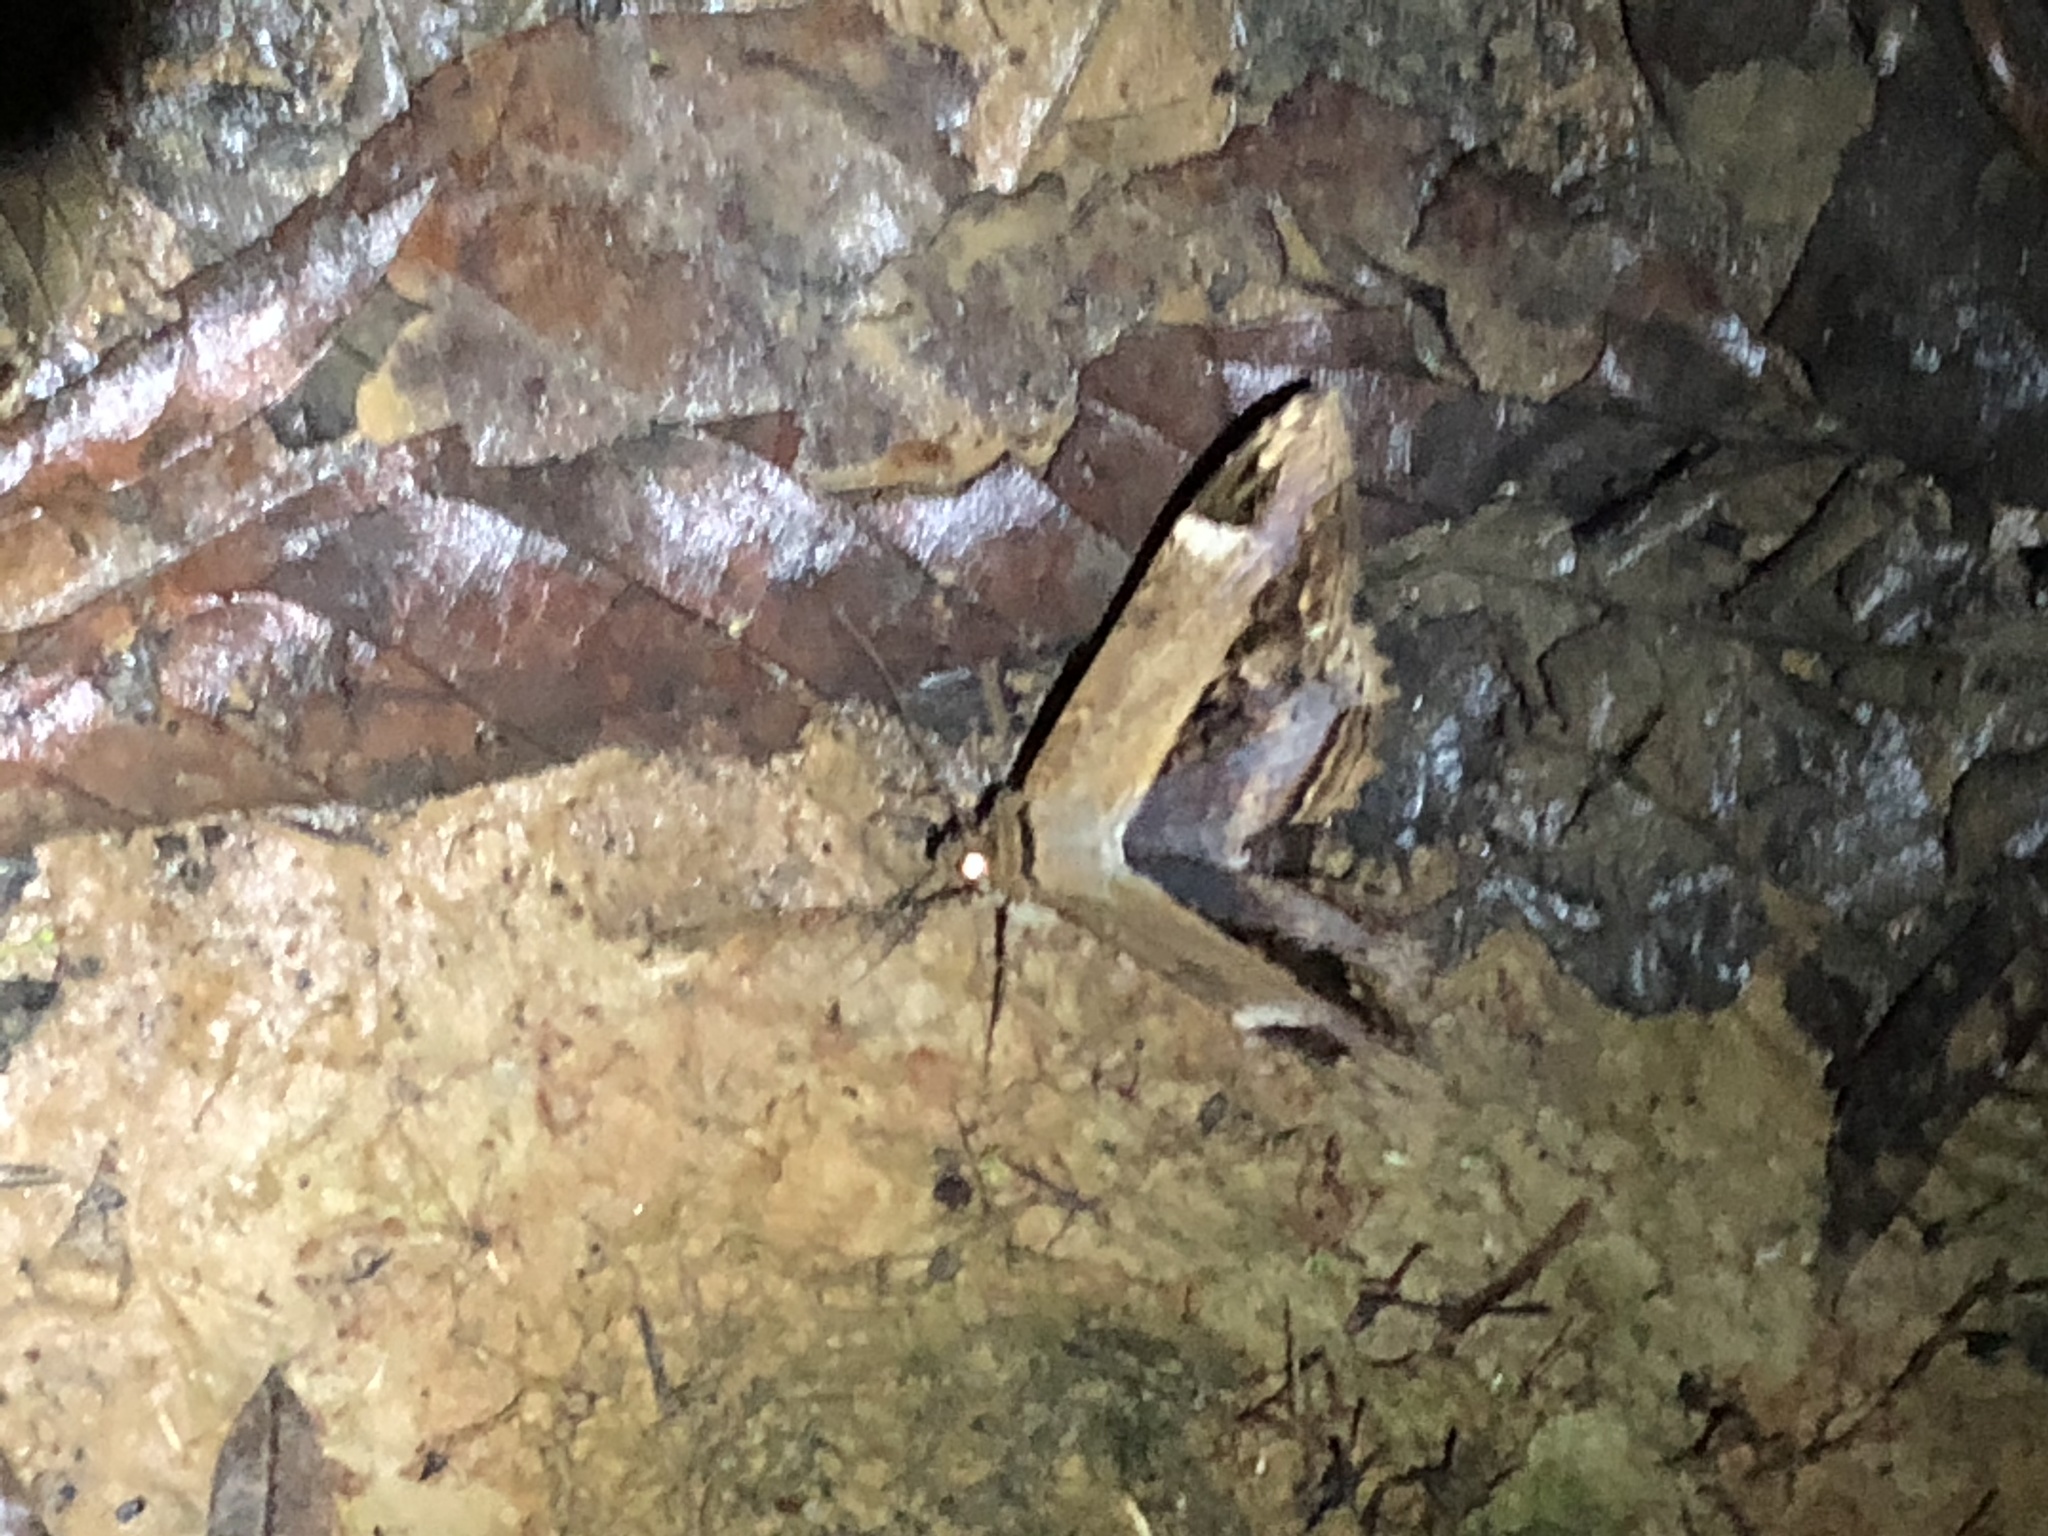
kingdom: Animalia
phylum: Arthropoda
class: Insecta
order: Lepidoptera
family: Noctuidae
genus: Ronania
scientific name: Ronania
